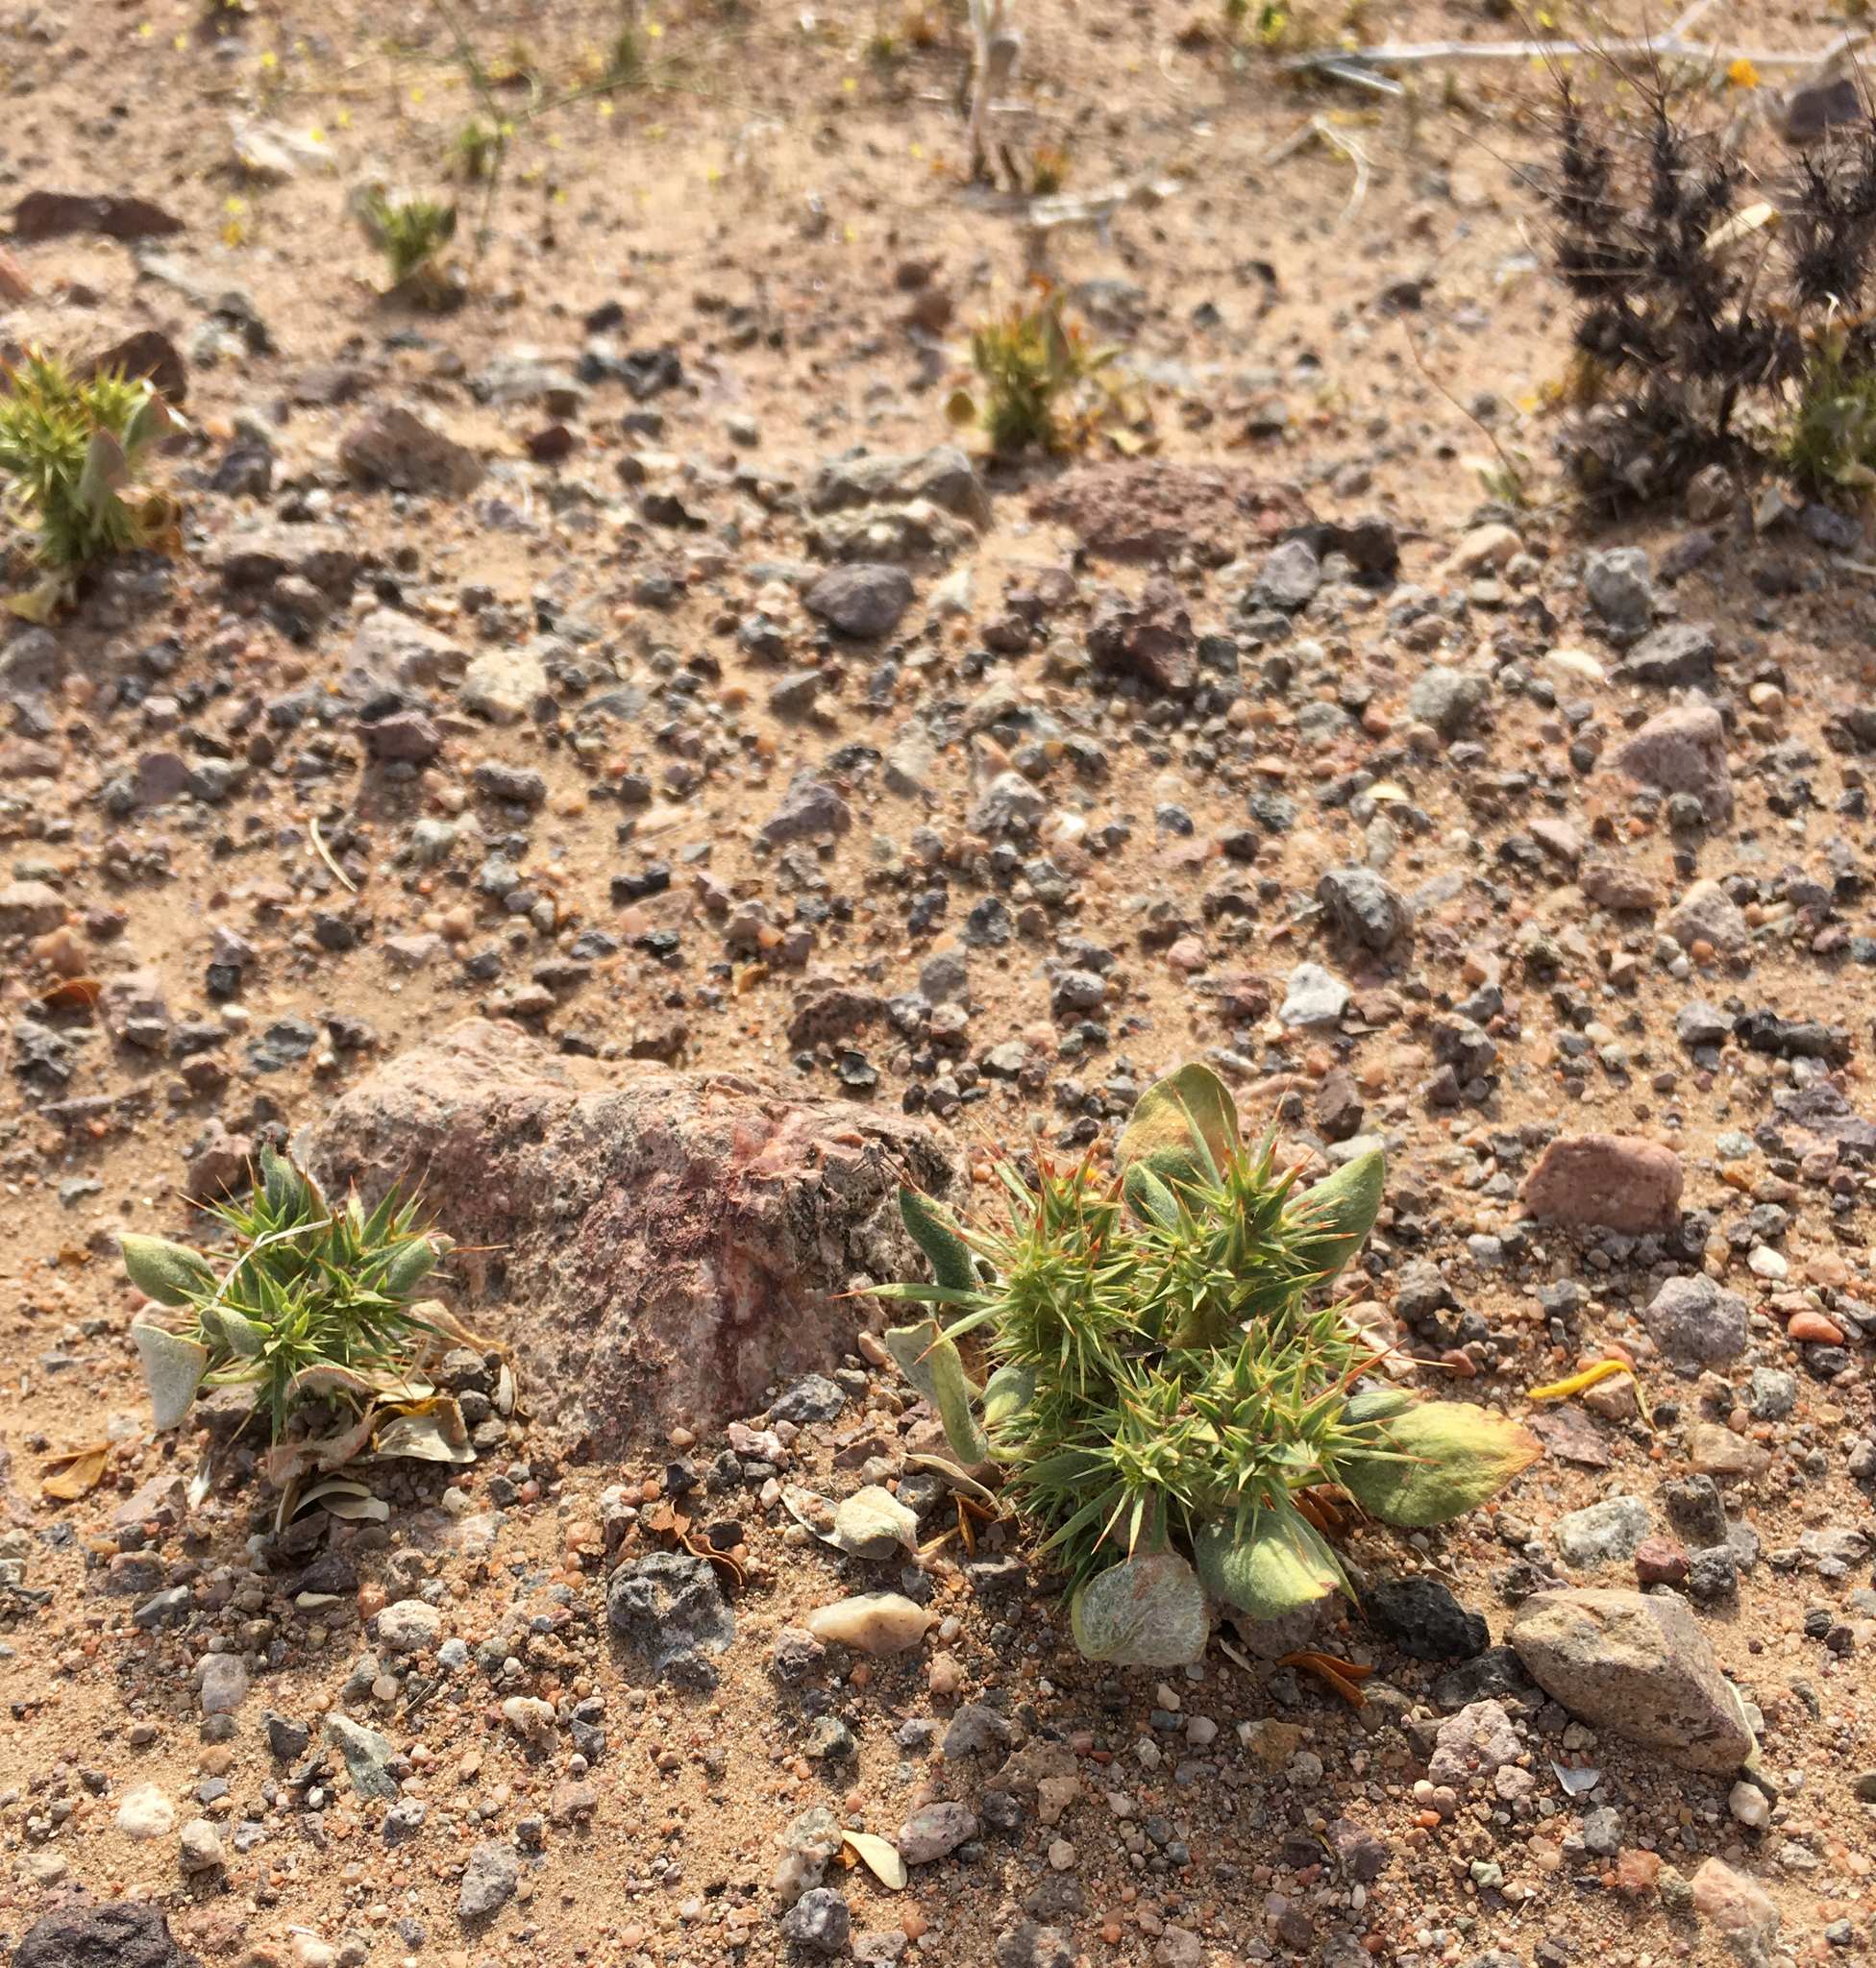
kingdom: Plantae
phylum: Tracheophyta
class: Magnoliopsida
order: Caryophyllales
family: Polygonaceae
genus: Chorizanthe
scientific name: Chorizanthe rigida
